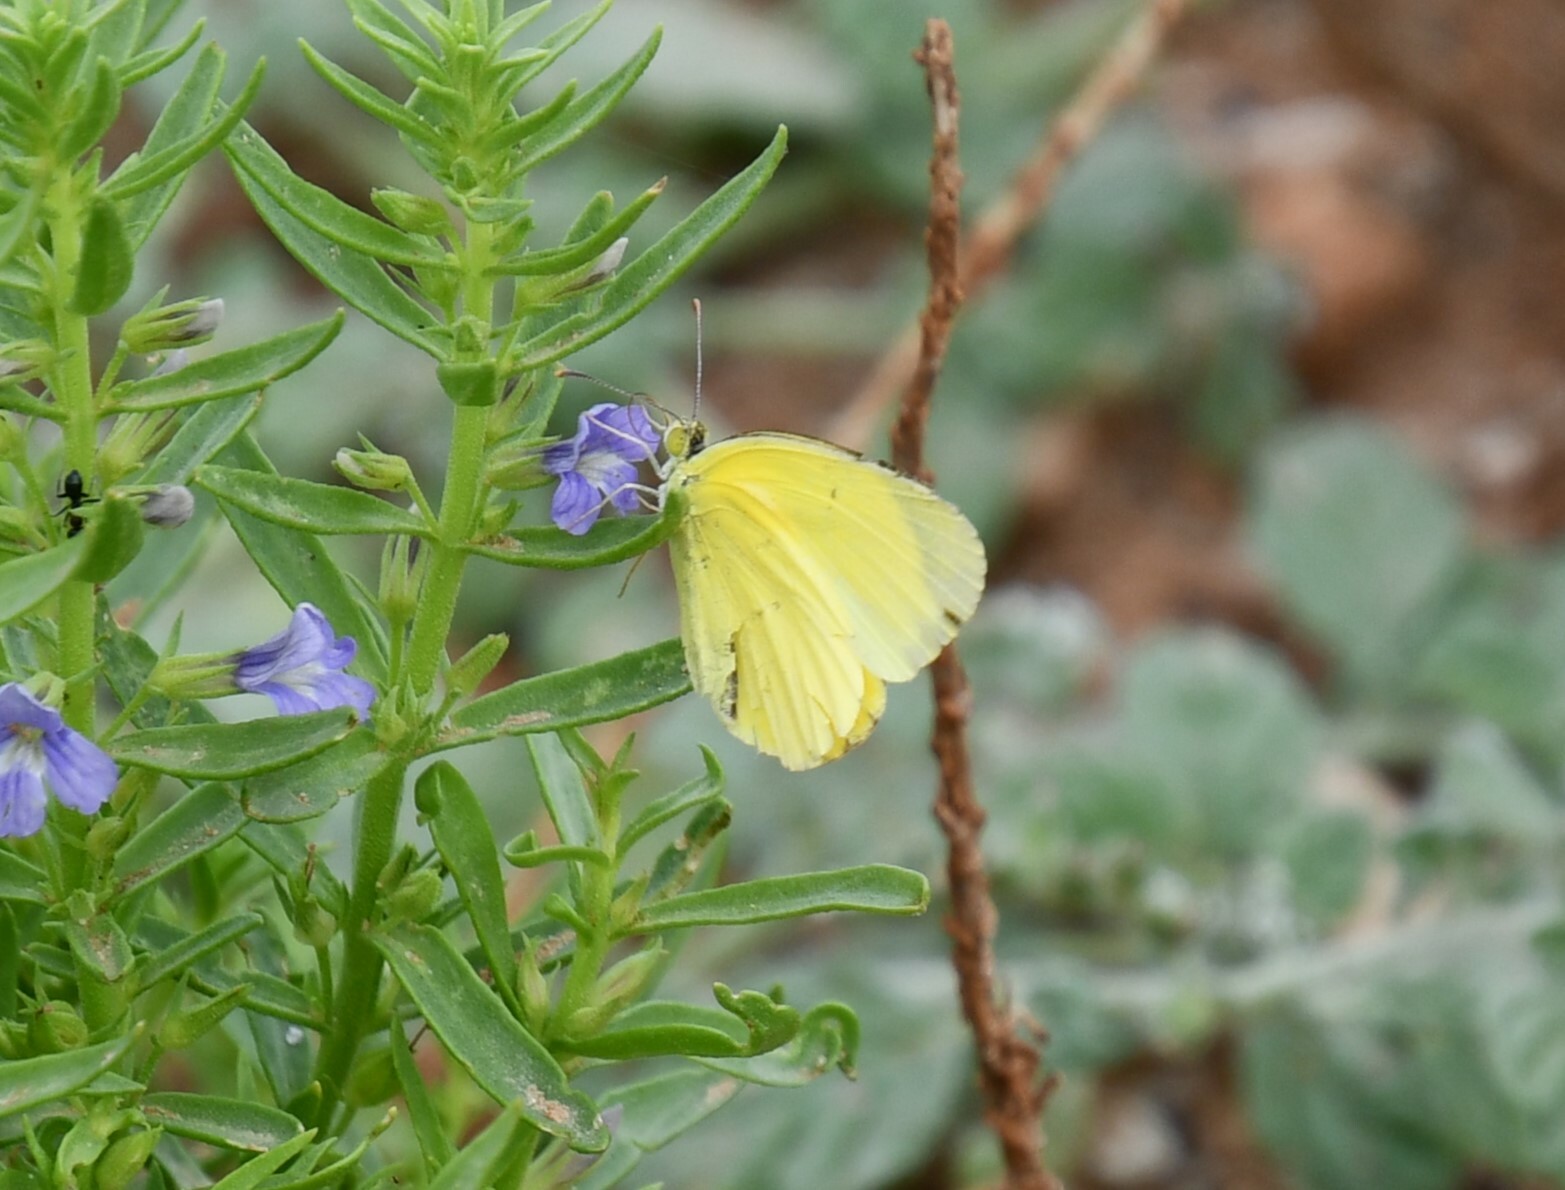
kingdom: Animalia
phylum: Arthropoda
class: Insecta
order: Lepidoptera
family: Pieridae
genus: Eurema
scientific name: Eurema smilax
